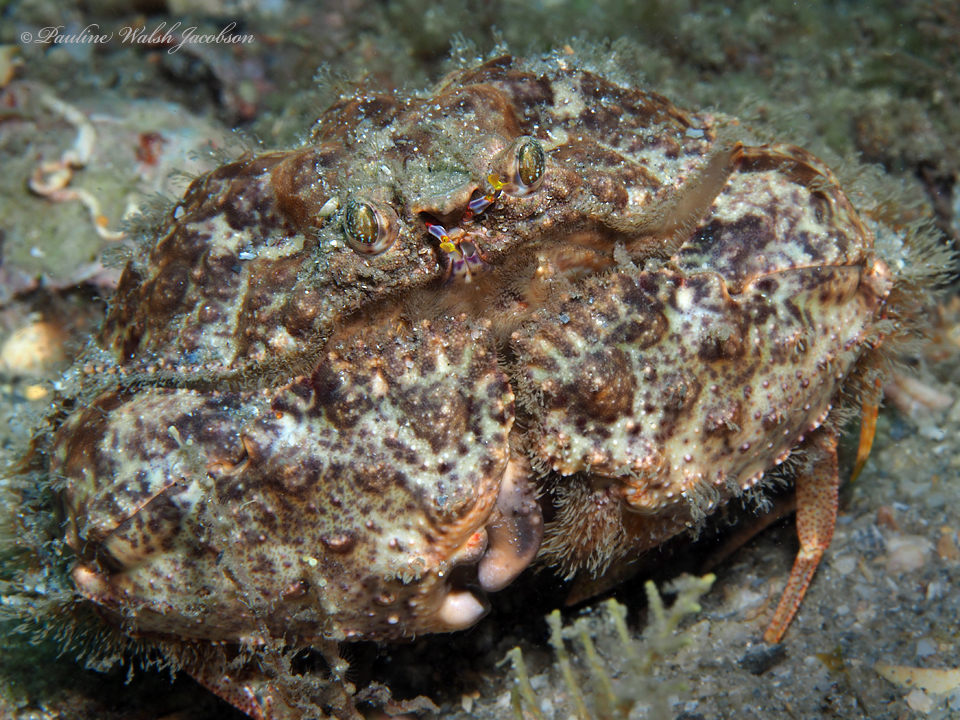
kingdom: Animalia
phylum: Arthropoda
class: Malacostraca
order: Decapoda
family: Calappidae
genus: Calappa
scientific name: Calappa galloides
